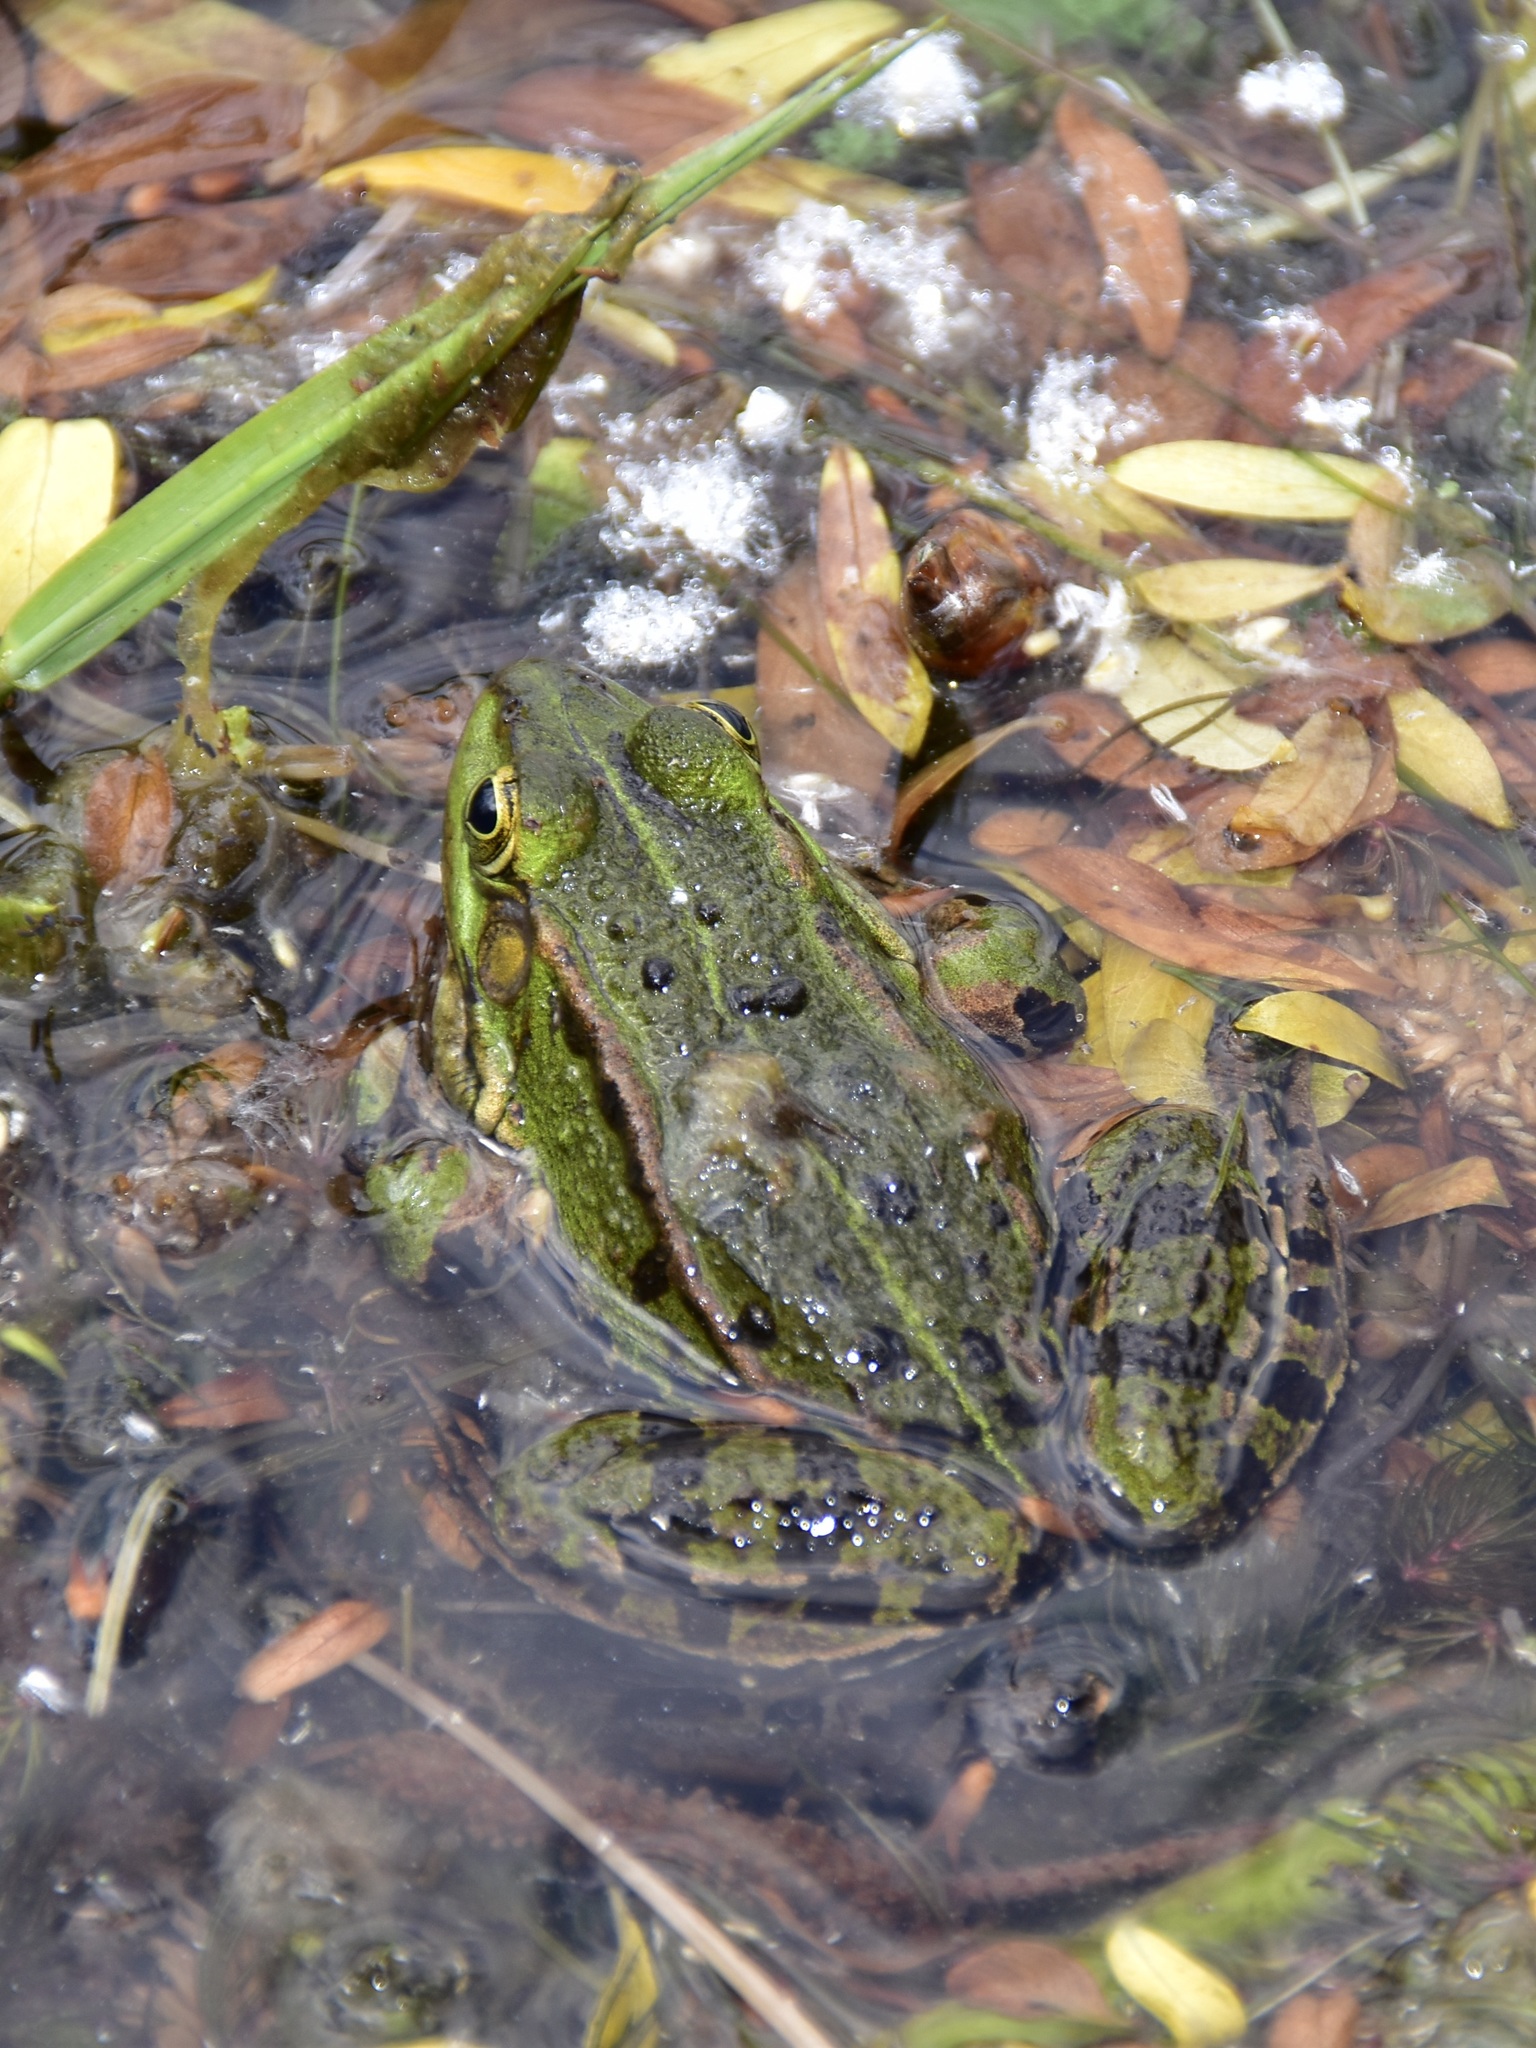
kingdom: Animalia
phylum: Chordata
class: Amphibia
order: Anura
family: Ranidae
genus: Pelophylax
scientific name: Pelophylax
